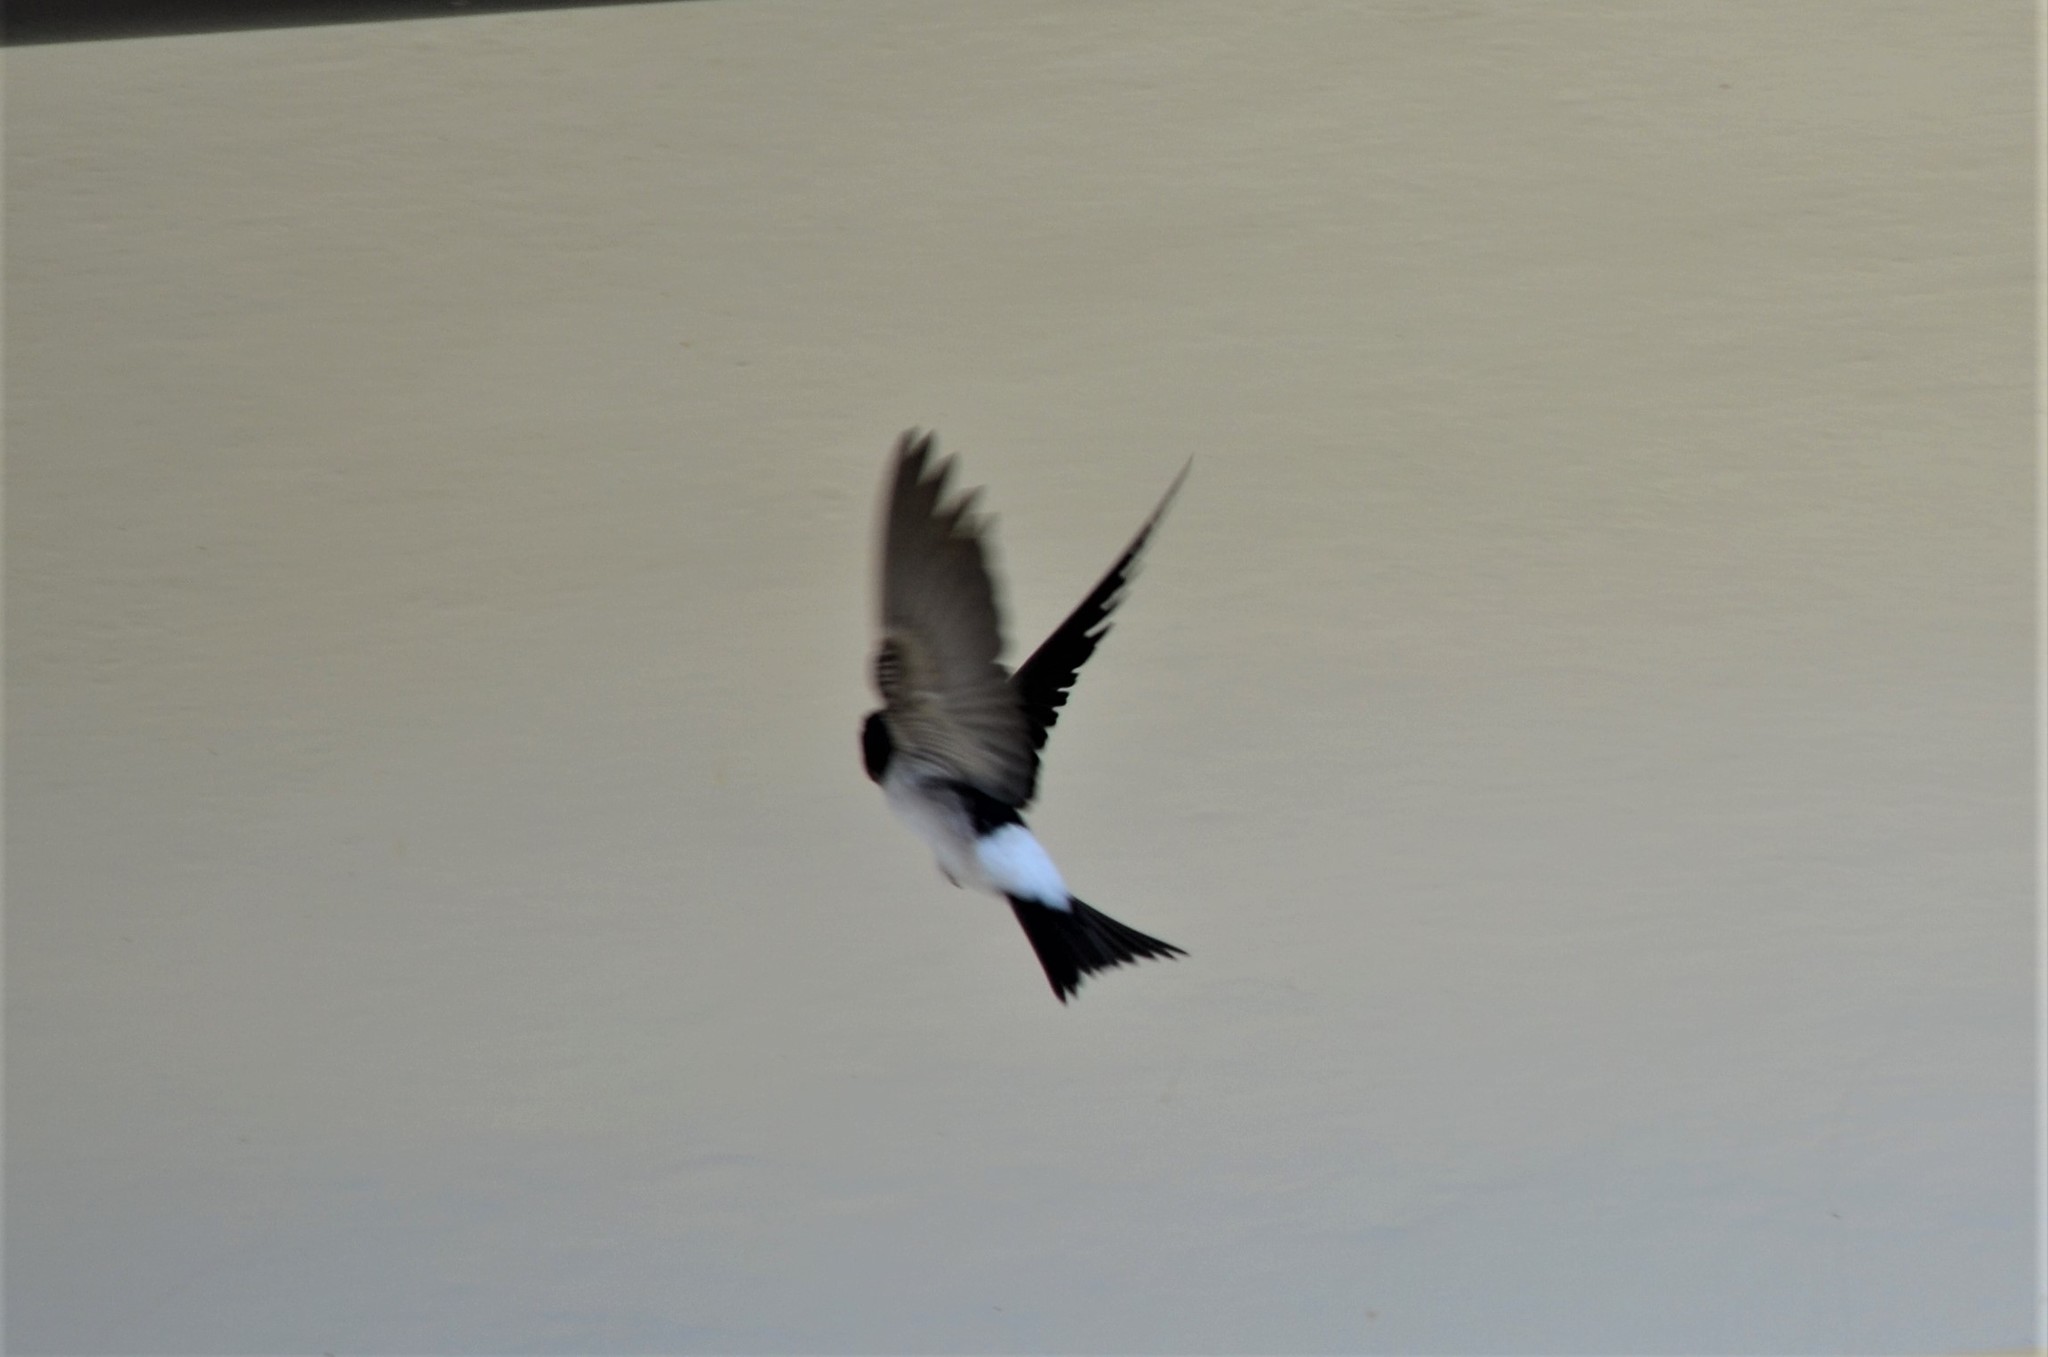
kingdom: Animalia
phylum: Chordata
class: Aves
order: Passeriformes
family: Hirundinidae
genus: Delichon
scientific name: Delichon urbicum
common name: Common house martin
